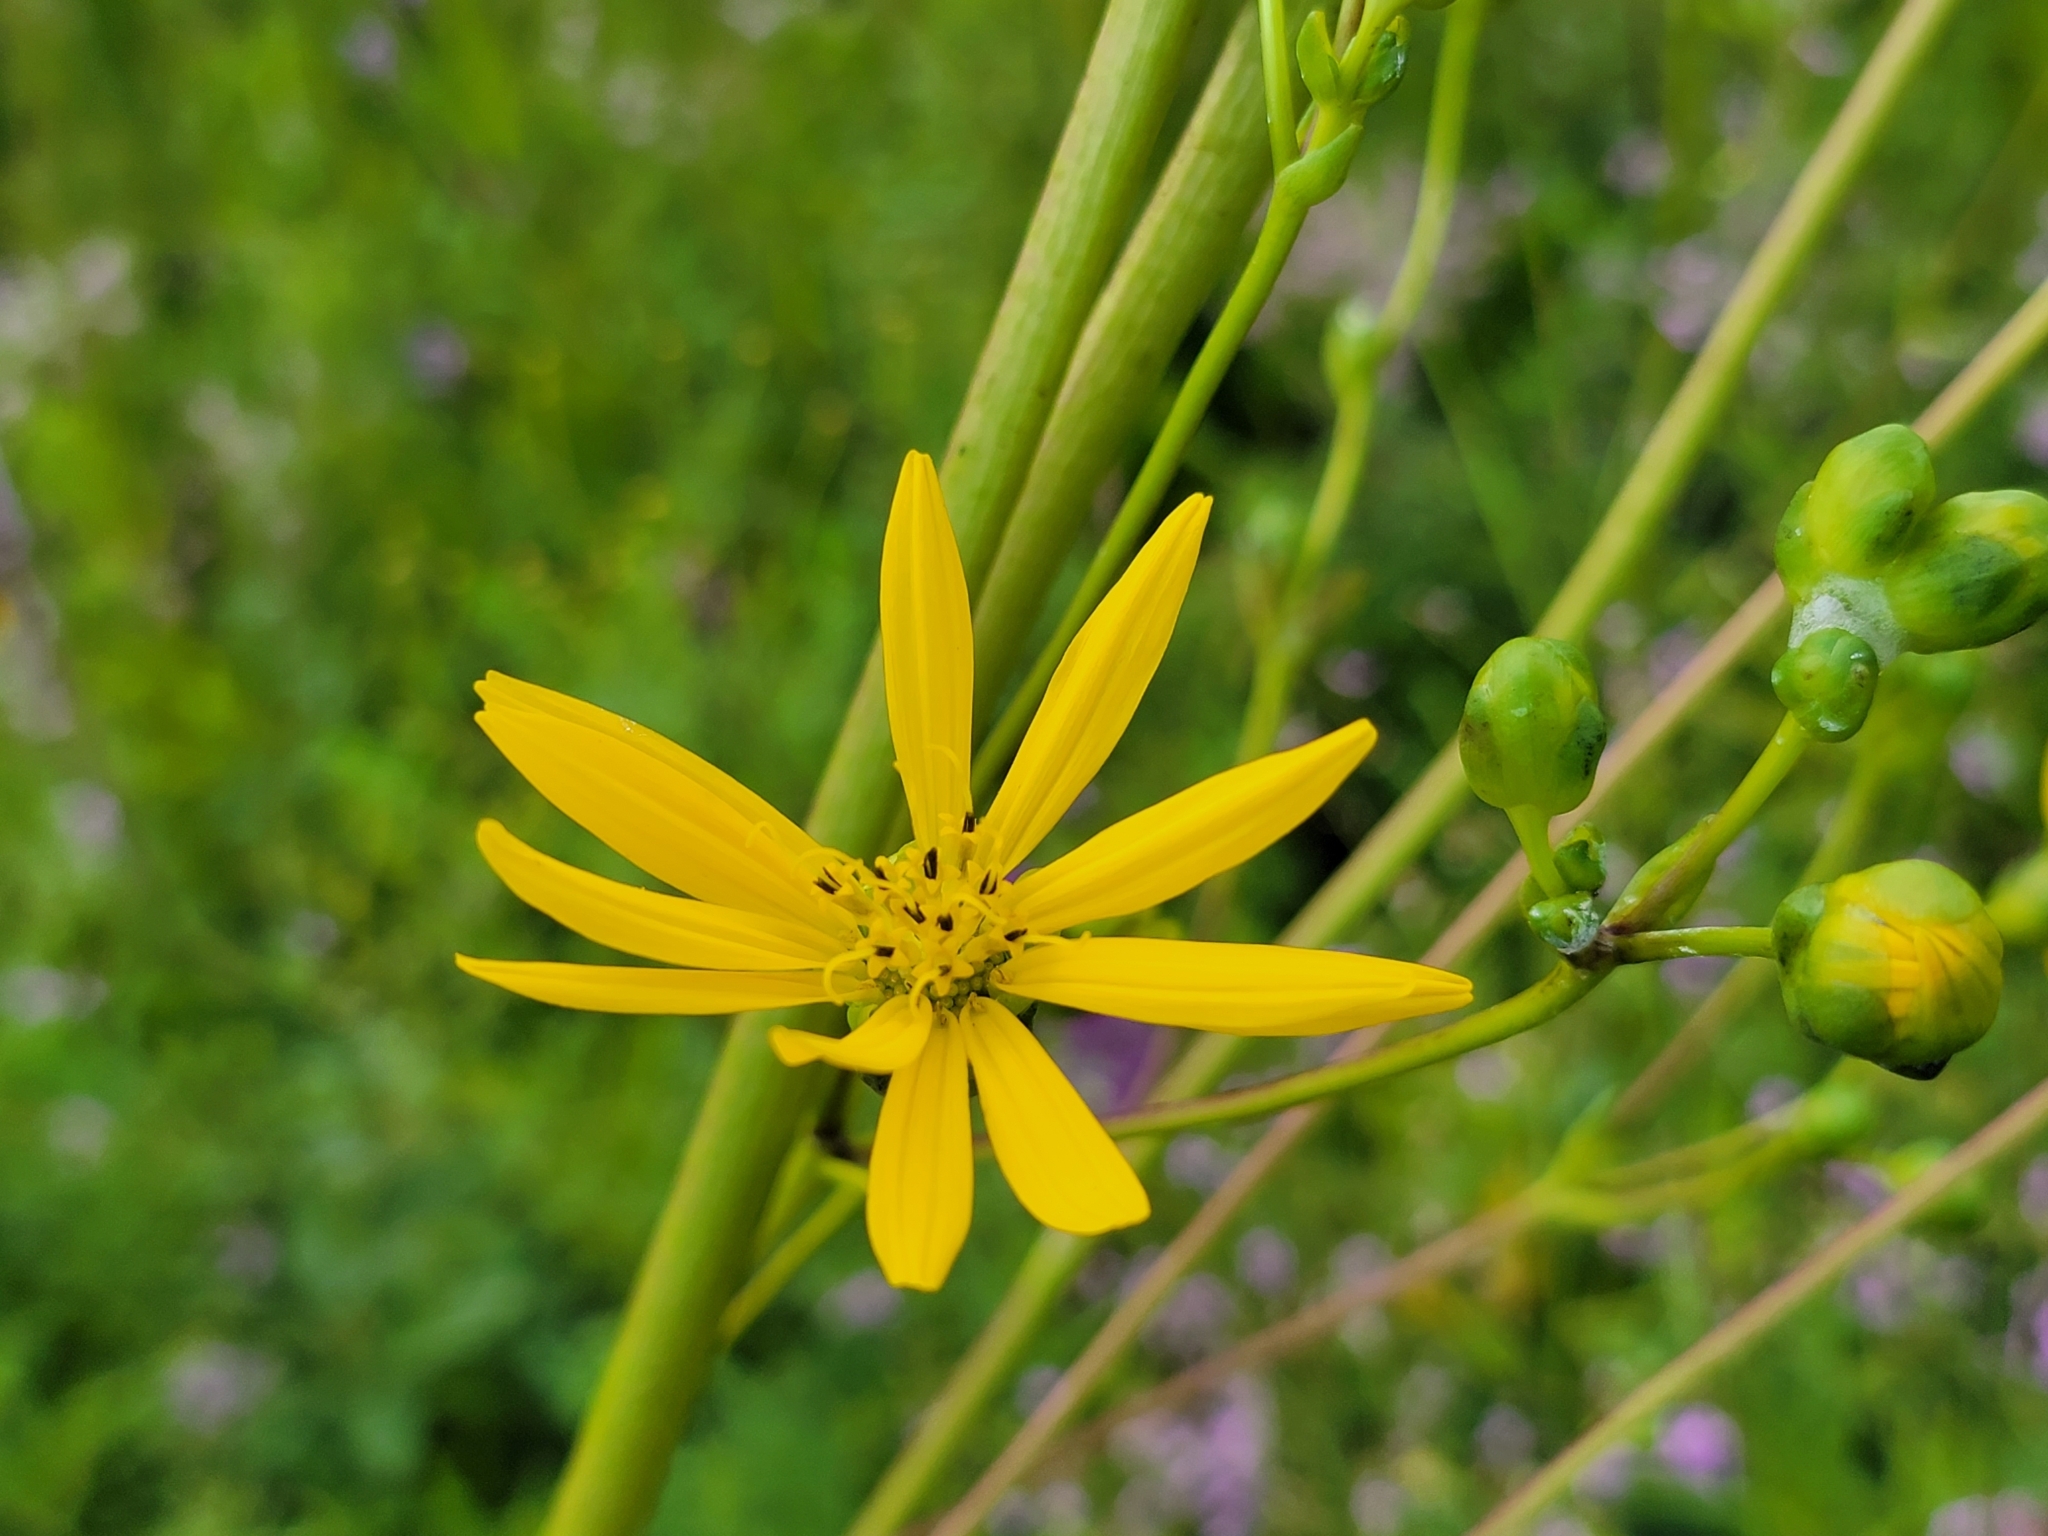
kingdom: Plantae
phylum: Tracheophyta
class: Magnoliopsida
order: Asterales
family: Asteraceae
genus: Silphium
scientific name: Silphium terebinthinaceum
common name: Basal-leaf rosinweed
